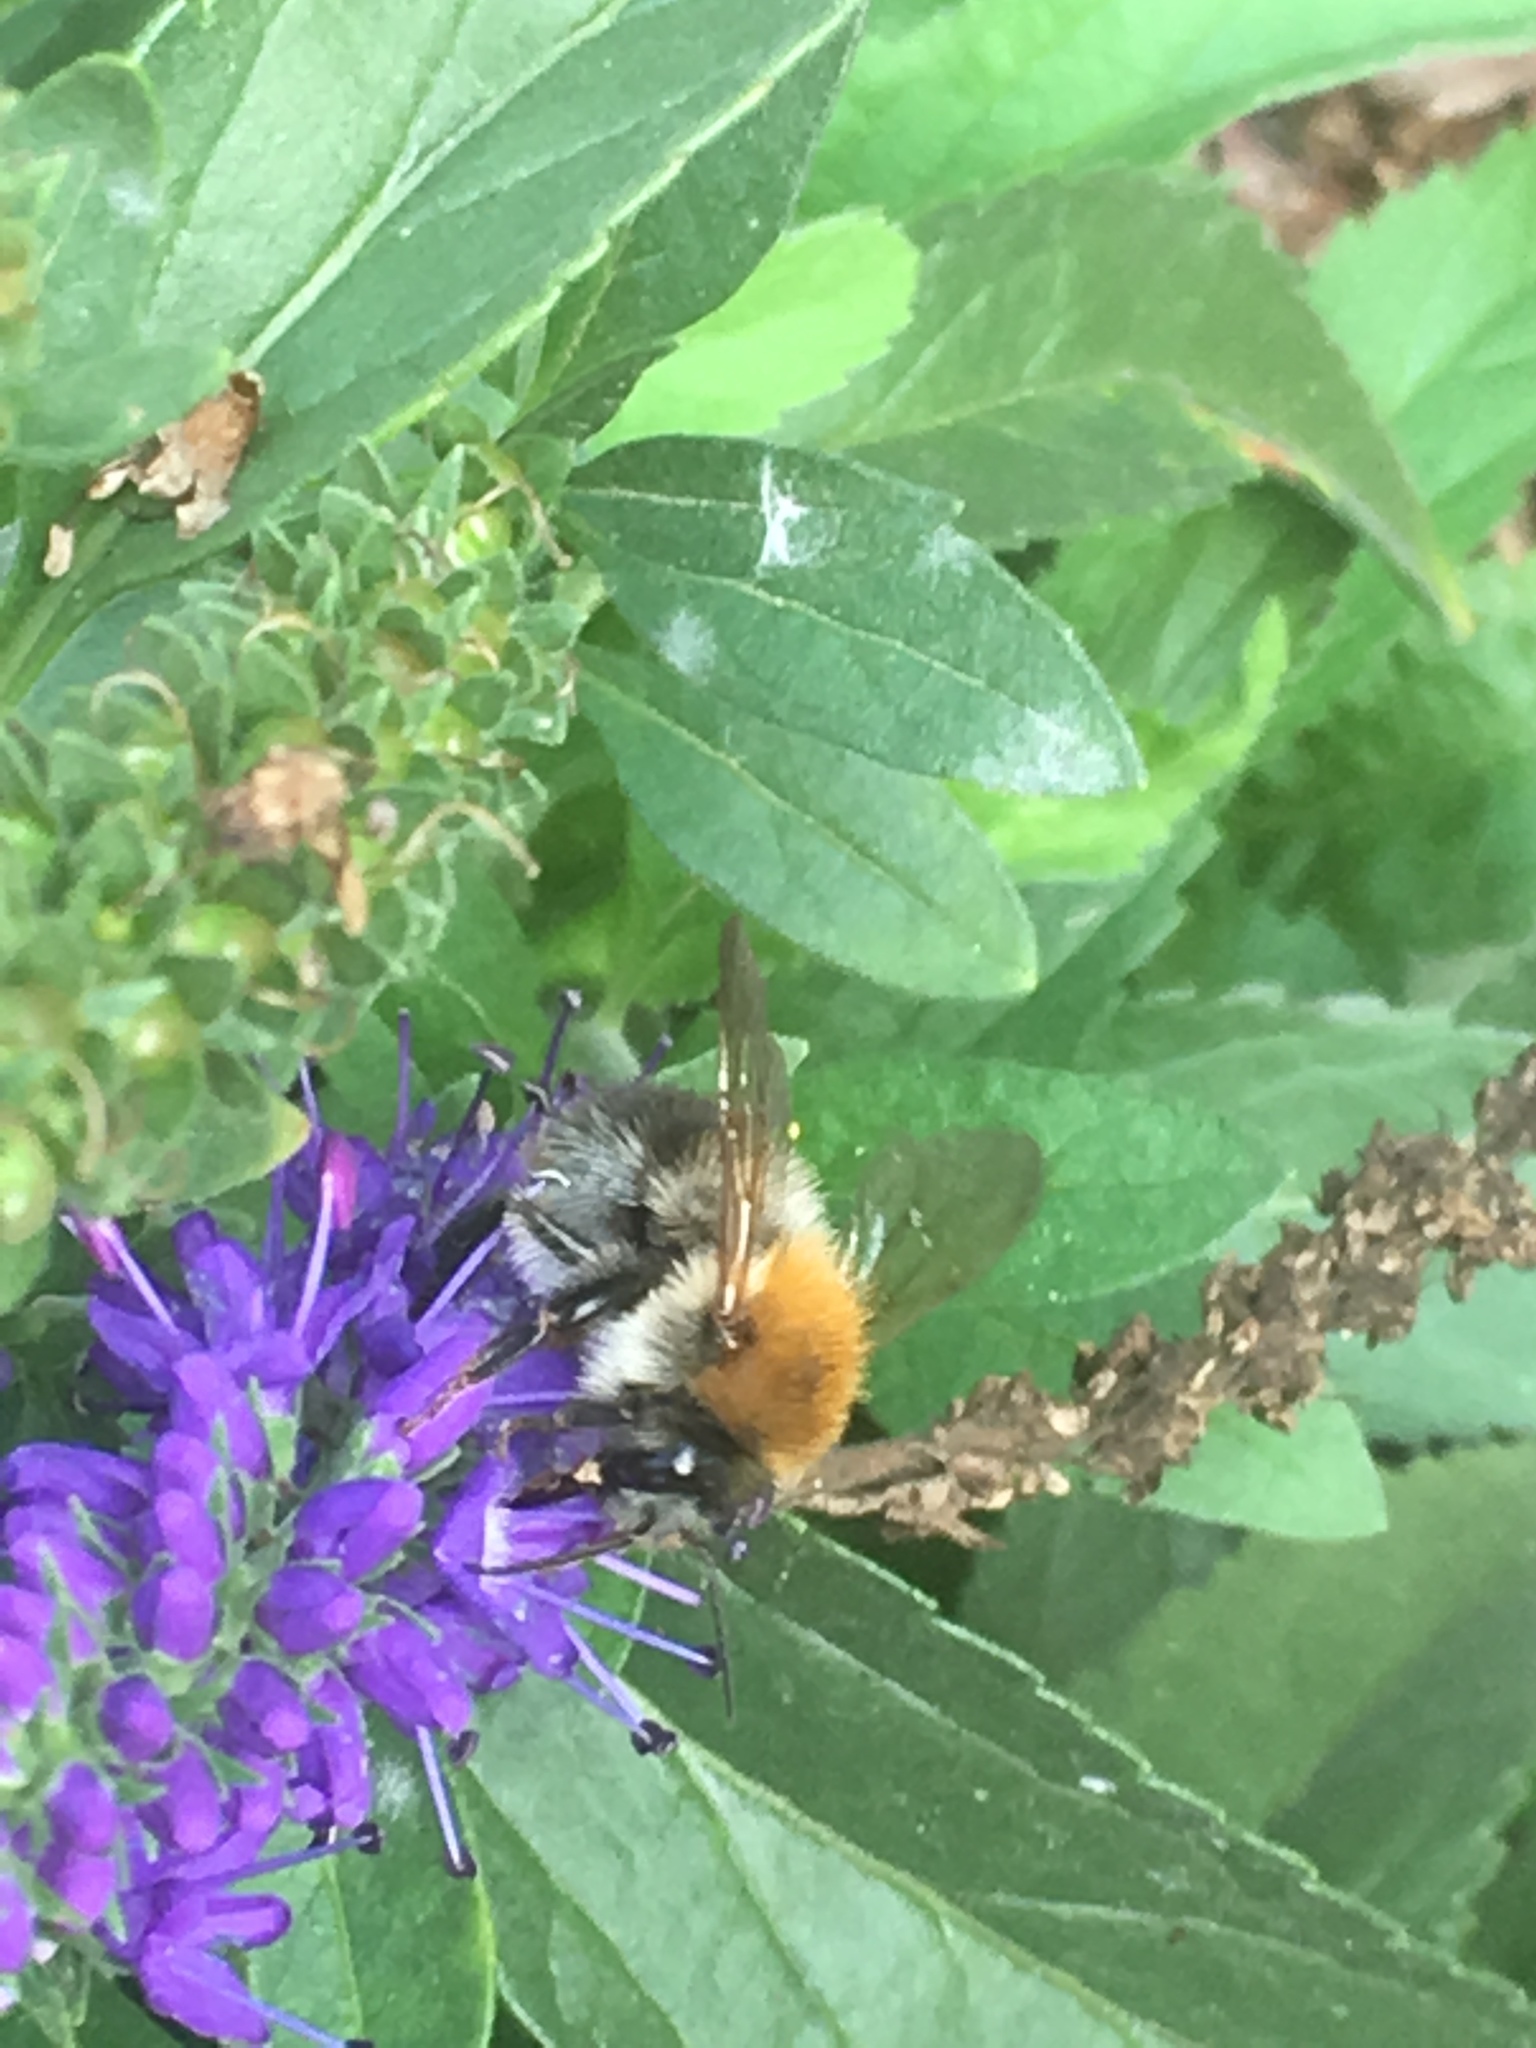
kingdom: Animalia
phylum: Arthropoda
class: Insecta
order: Hymenoptera
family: Apidae
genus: Bombus
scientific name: Bombus pascuorum
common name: Common carder bee
